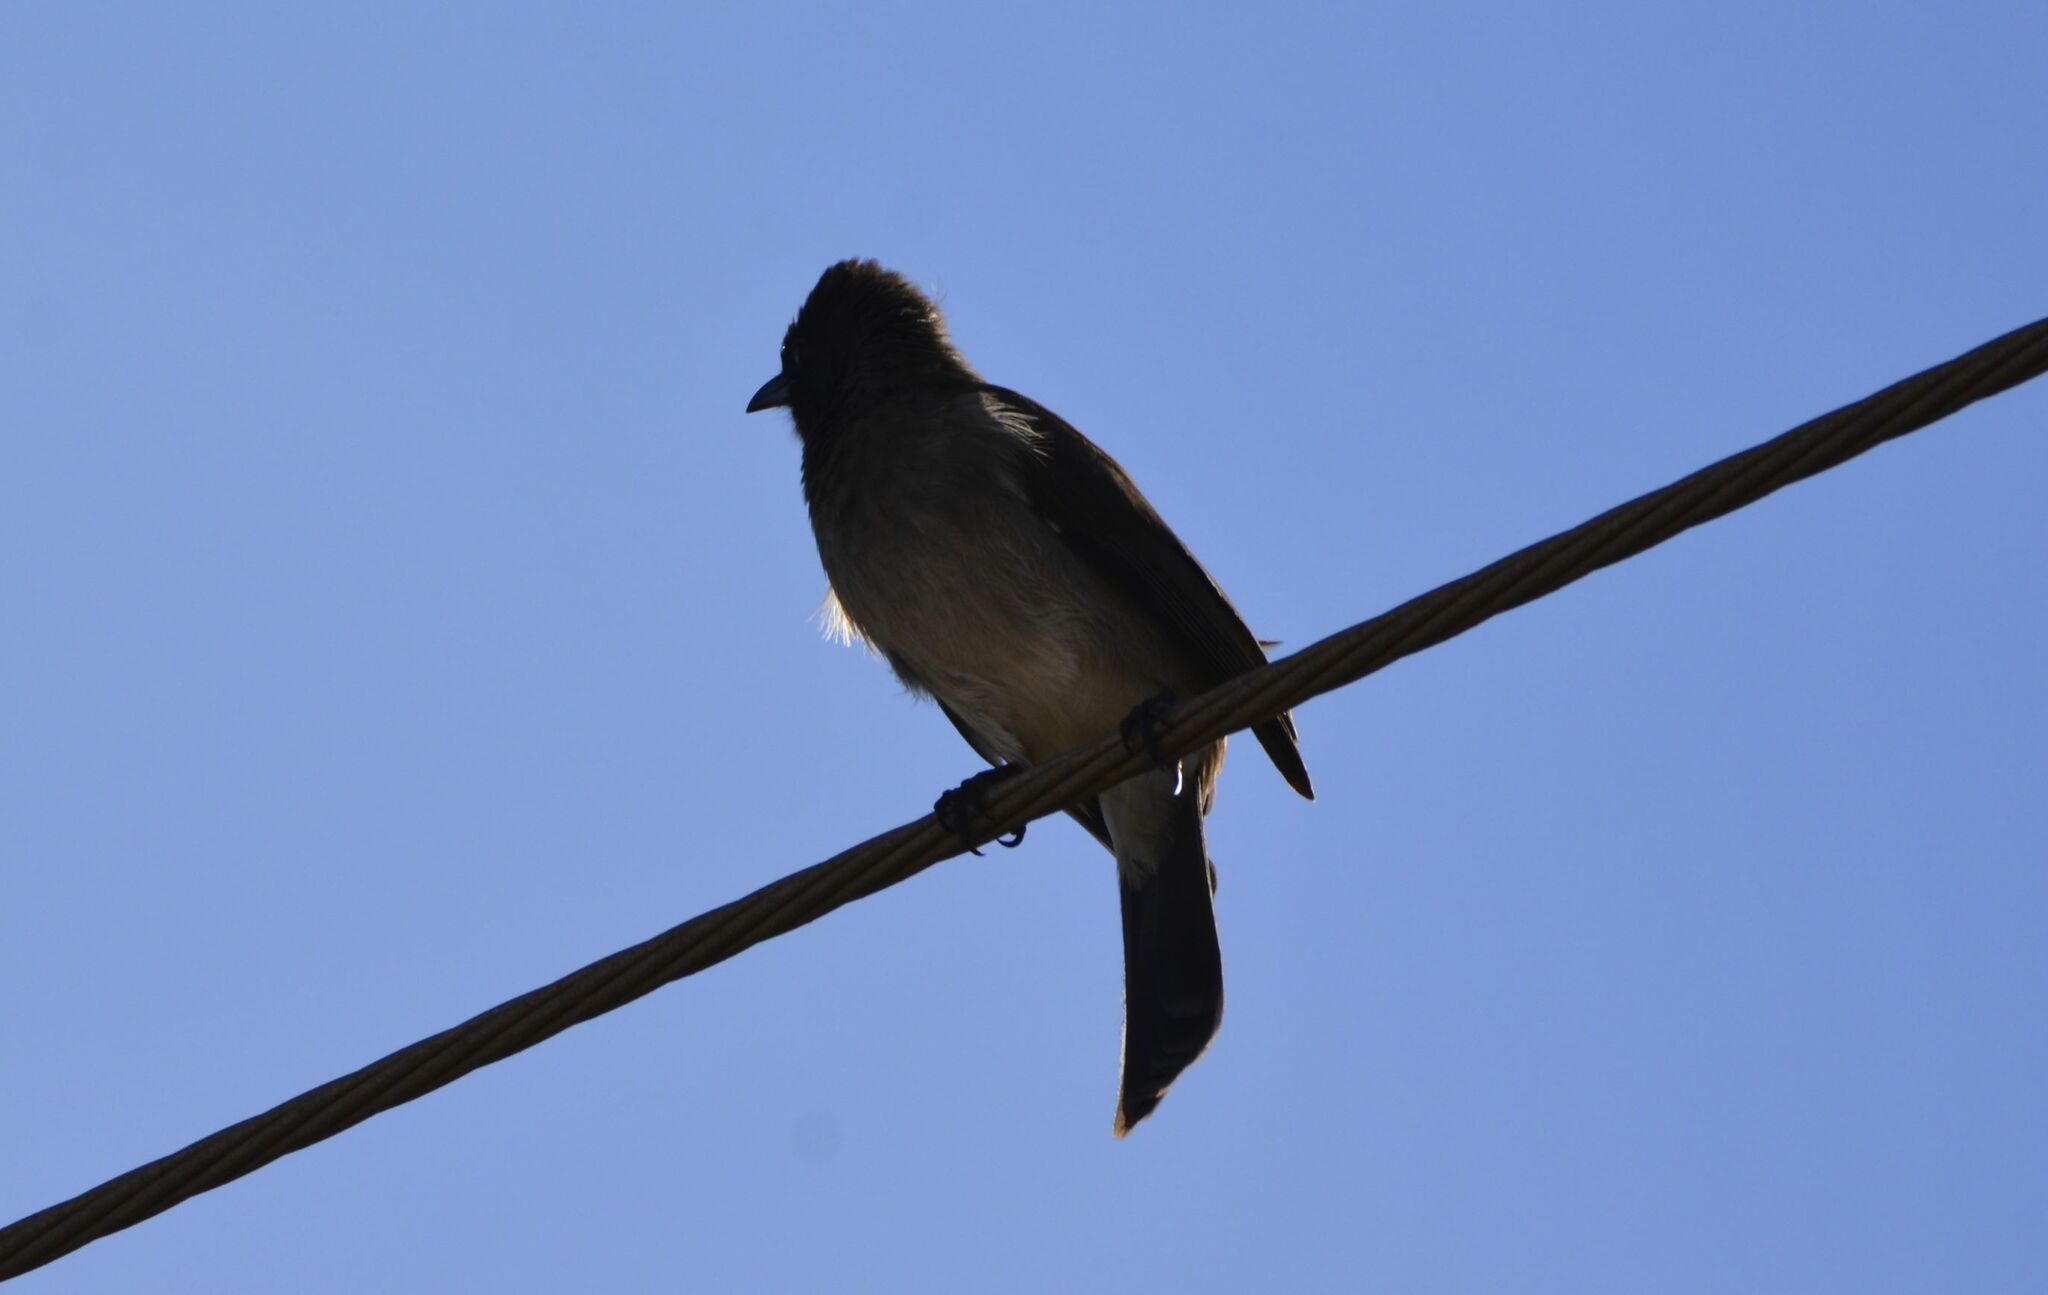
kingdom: Animalia
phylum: Chordata
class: Aves
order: Passeriformes
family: Pycnonotidae
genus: Pycnonotus
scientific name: Pycnonotus barbatus
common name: Common bulbul
